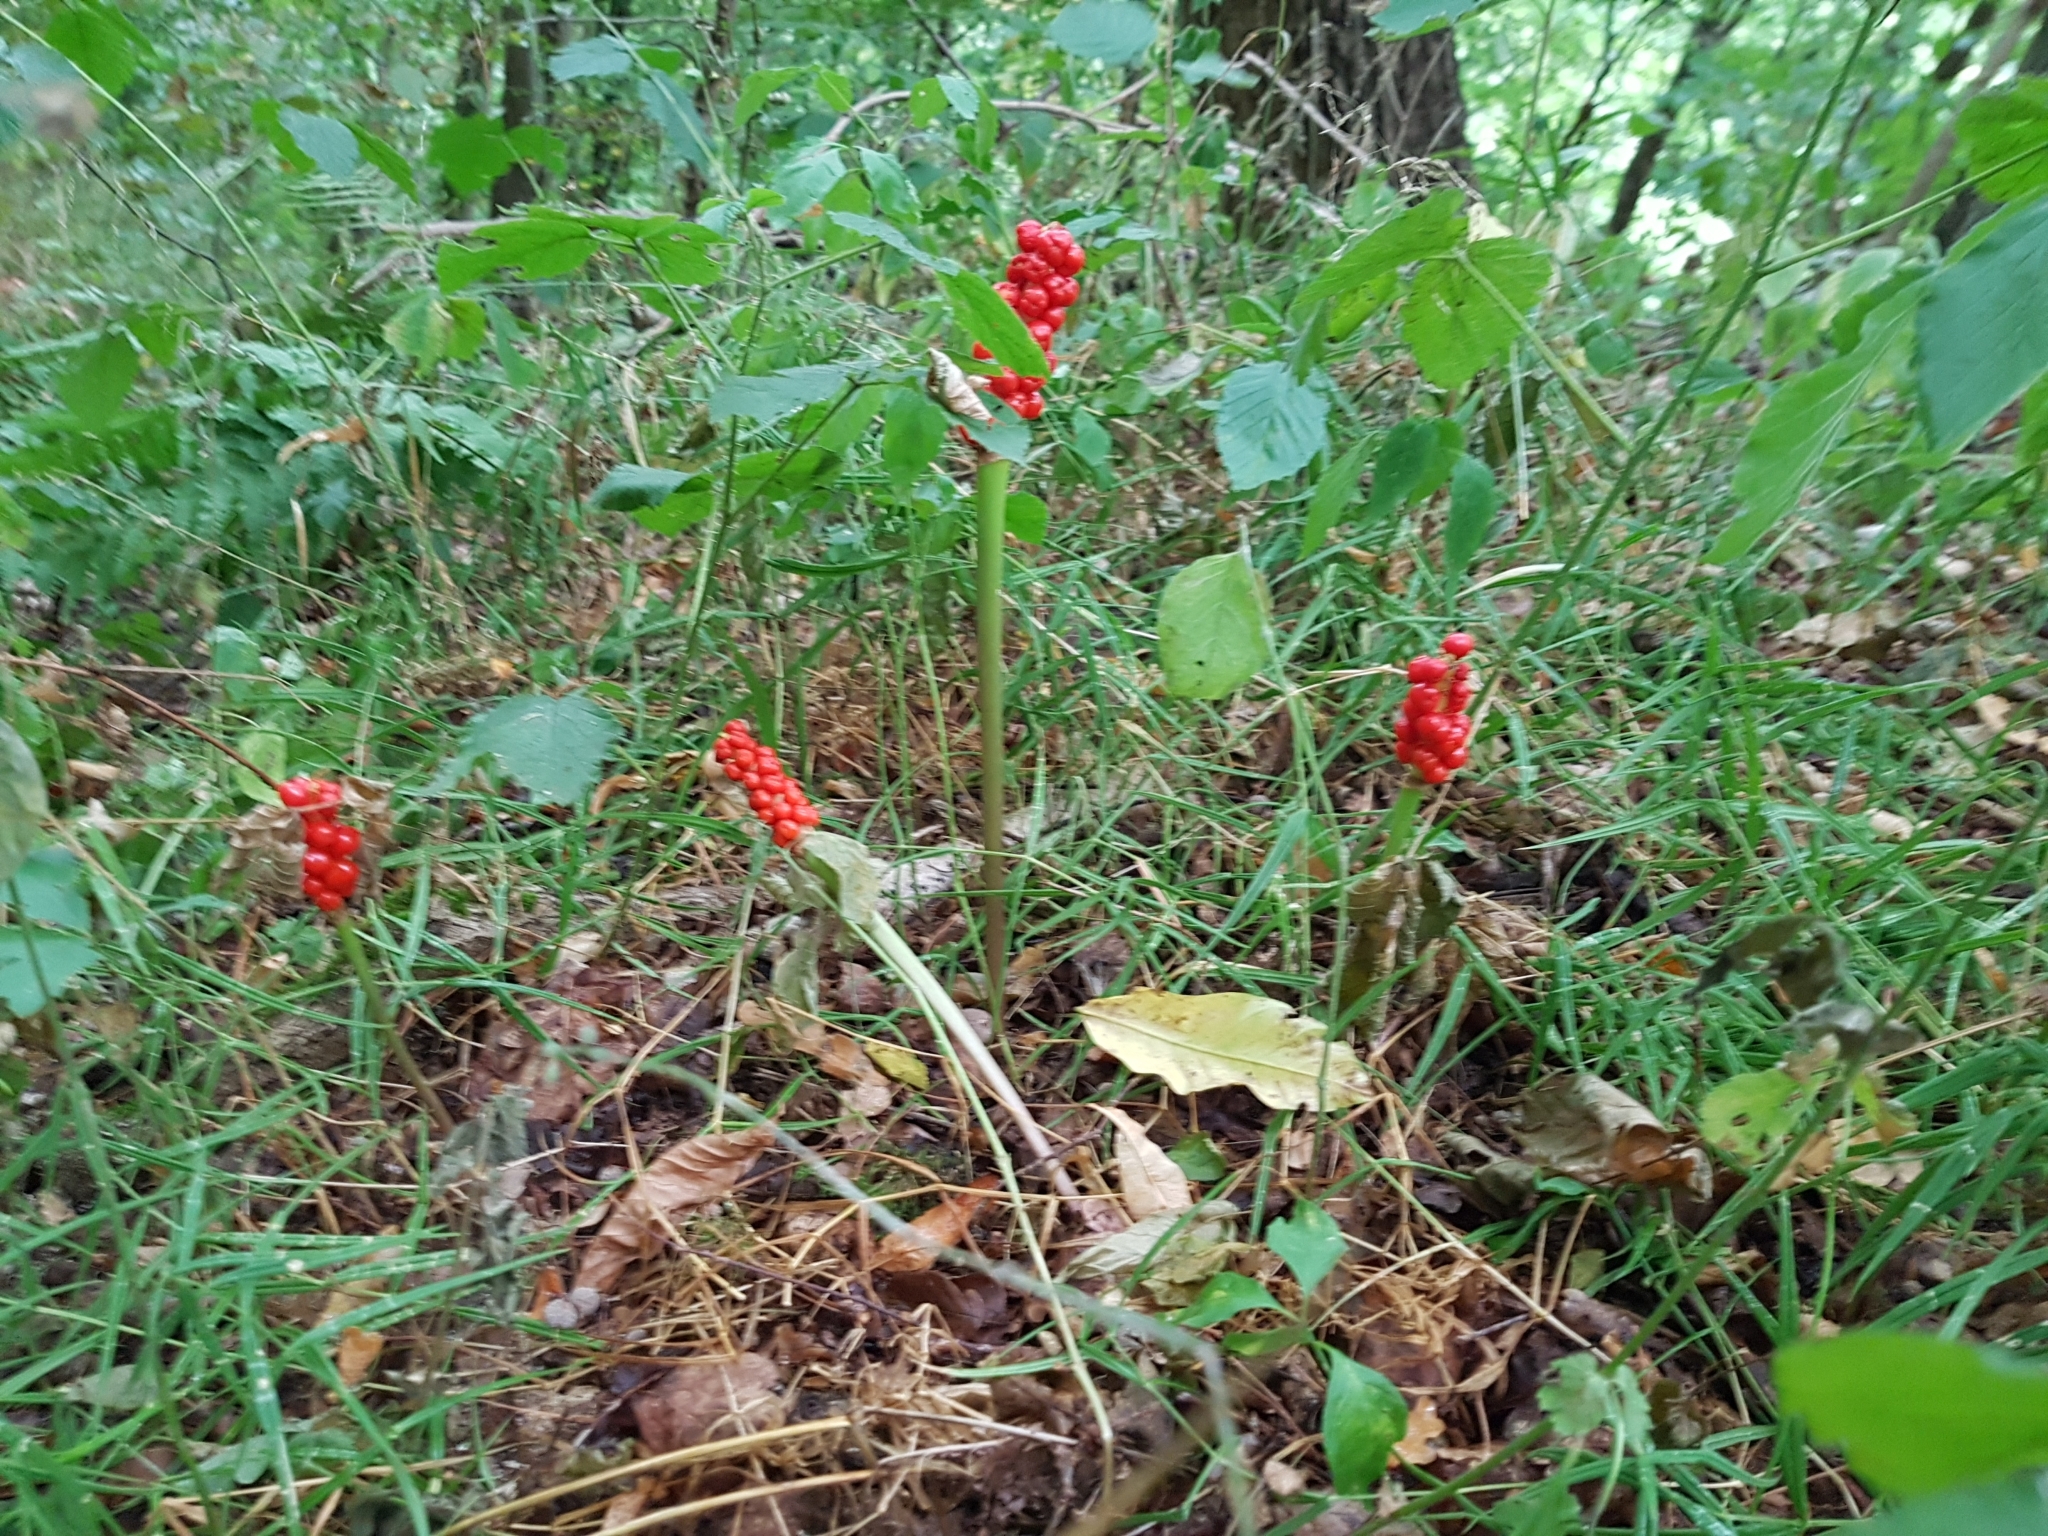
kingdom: Plantae
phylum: Tracheophyta
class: Liliopsida
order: Alismatales
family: Araceae
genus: Arum
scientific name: Arum maculatum
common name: Lords-and-ladies
